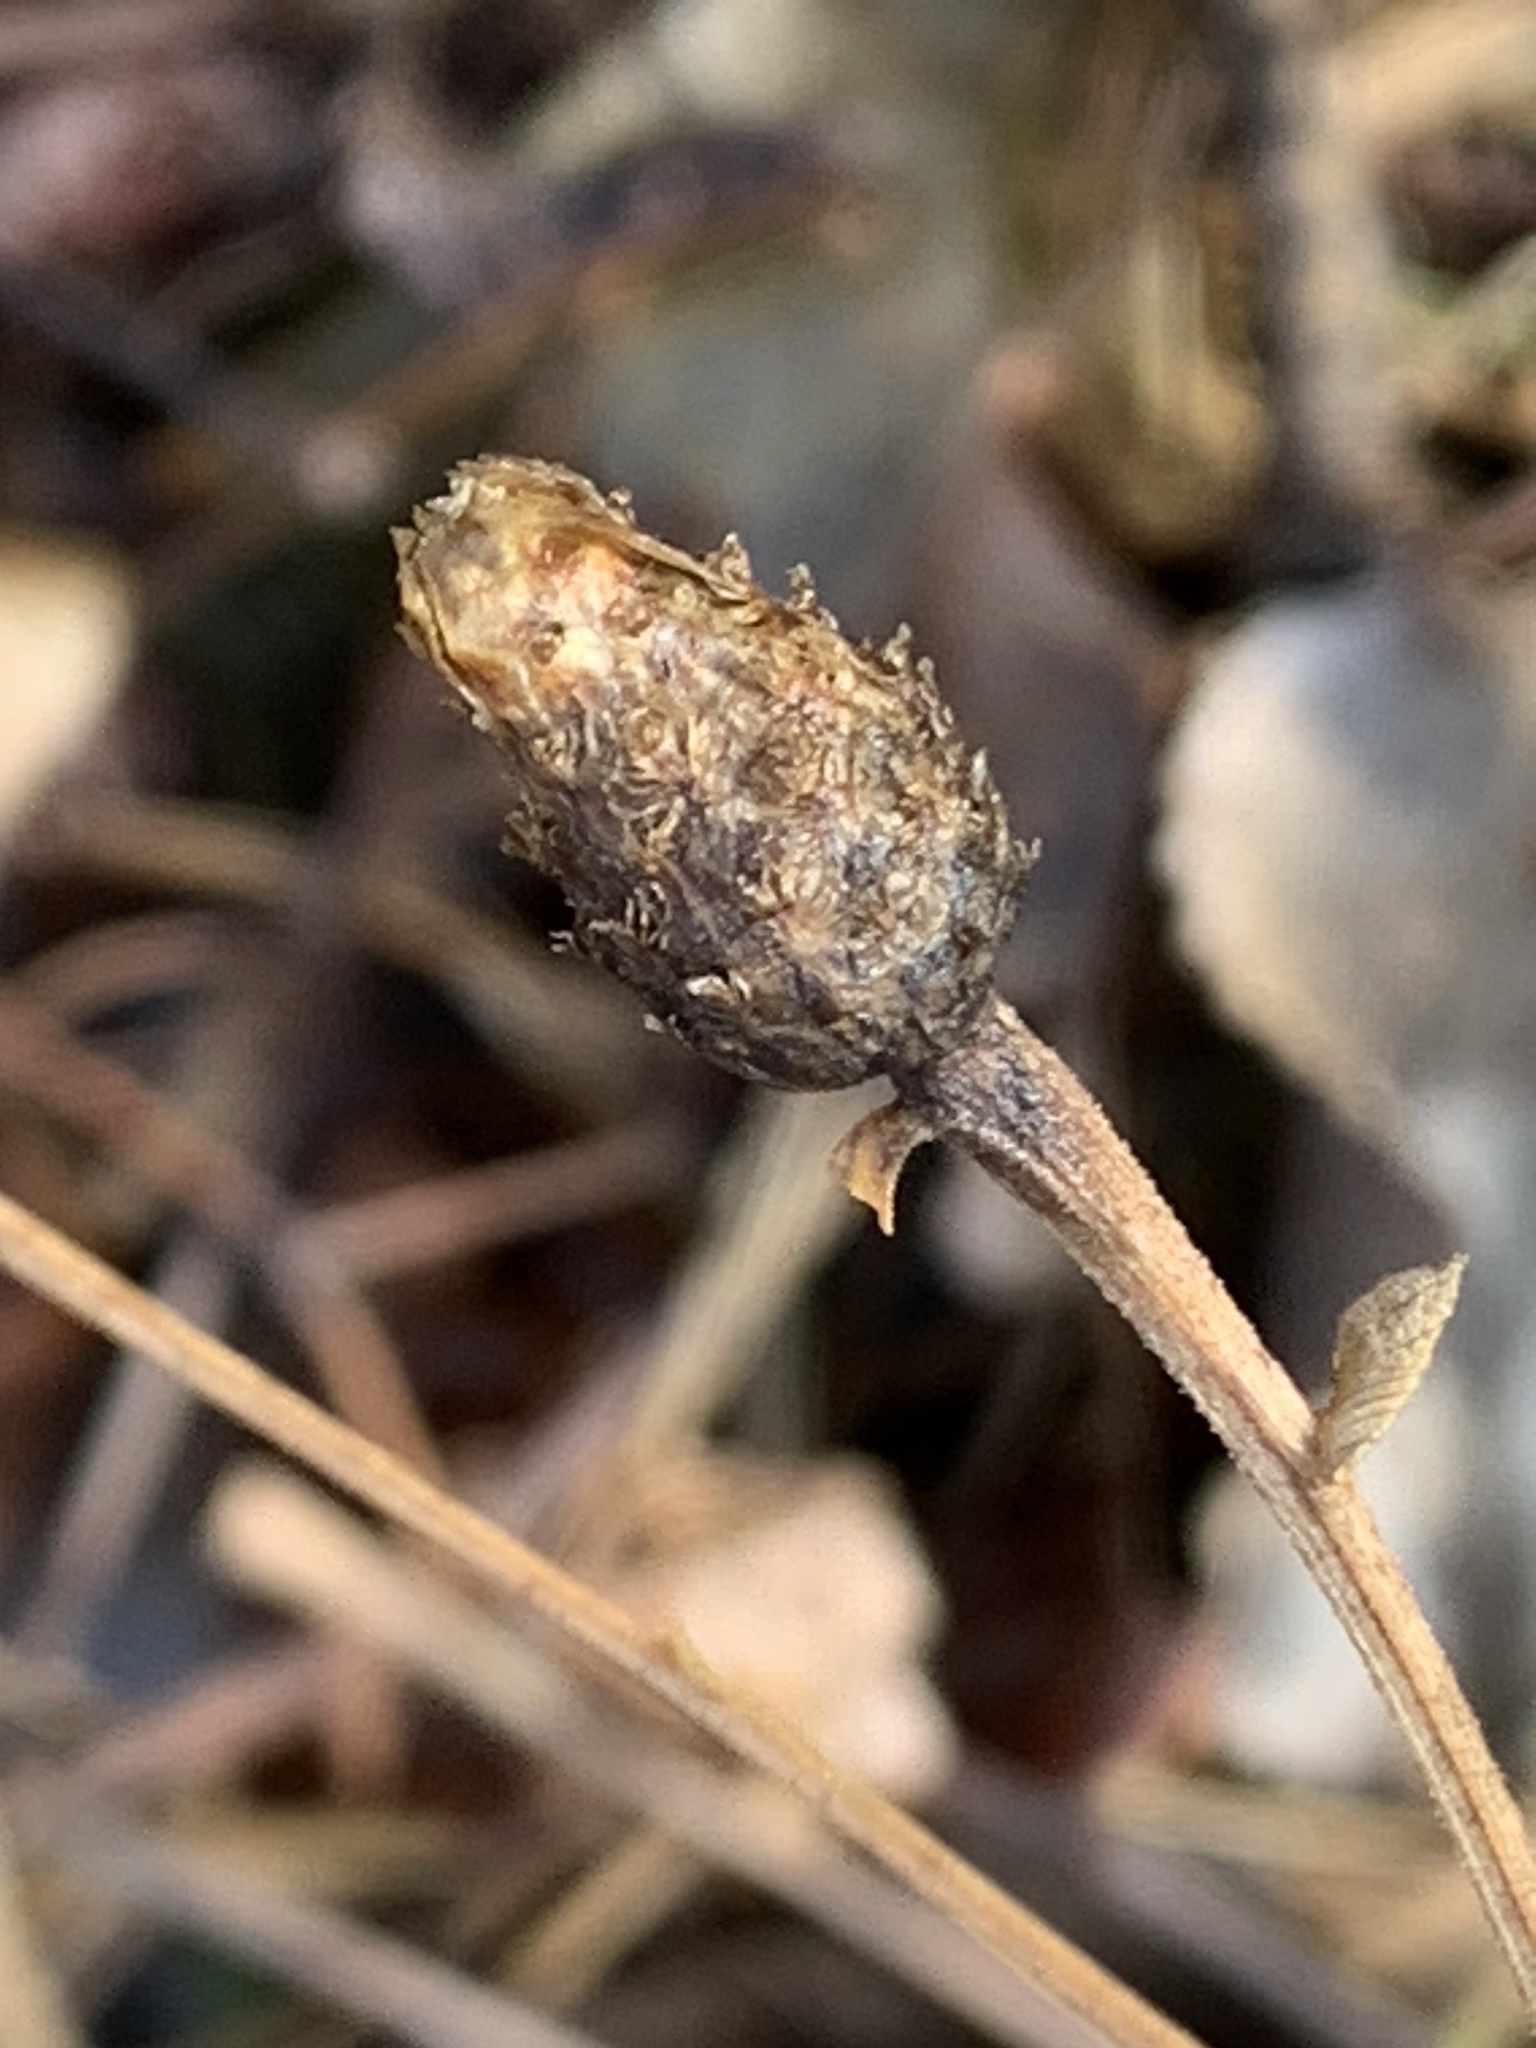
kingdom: Plantae
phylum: Tracheophyta
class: Magnoliopsida
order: Asterales
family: Asteraceae
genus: Centaurea
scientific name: Centaurea nigrescens
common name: Tyrol knapweed
